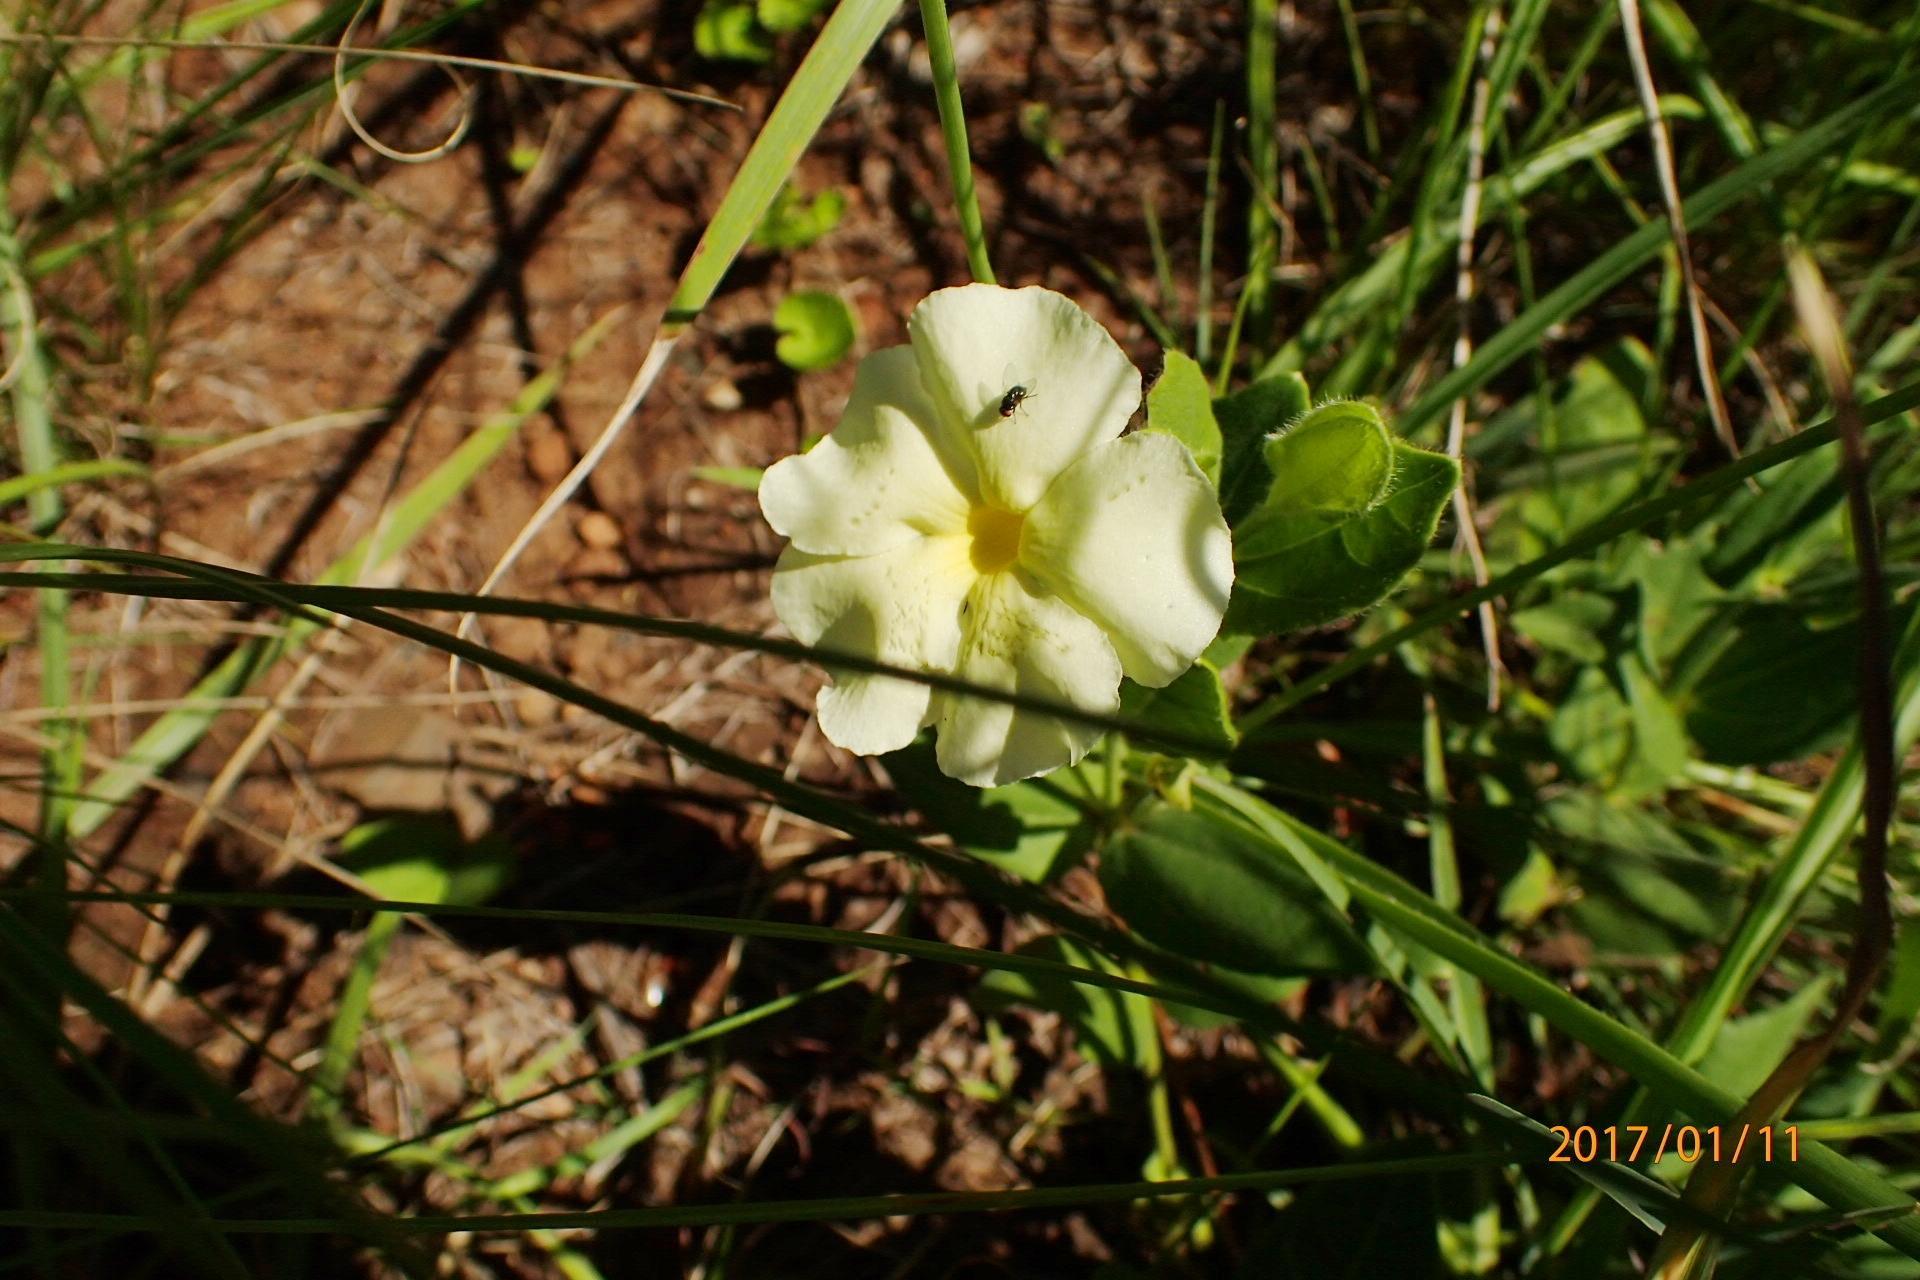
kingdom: Plantae
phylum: Tracheophyta
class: Magnoliopsida
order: Lamiales
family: Acanthaceae
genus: Thunbergia
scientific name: Thunbergia atriplicifolia
